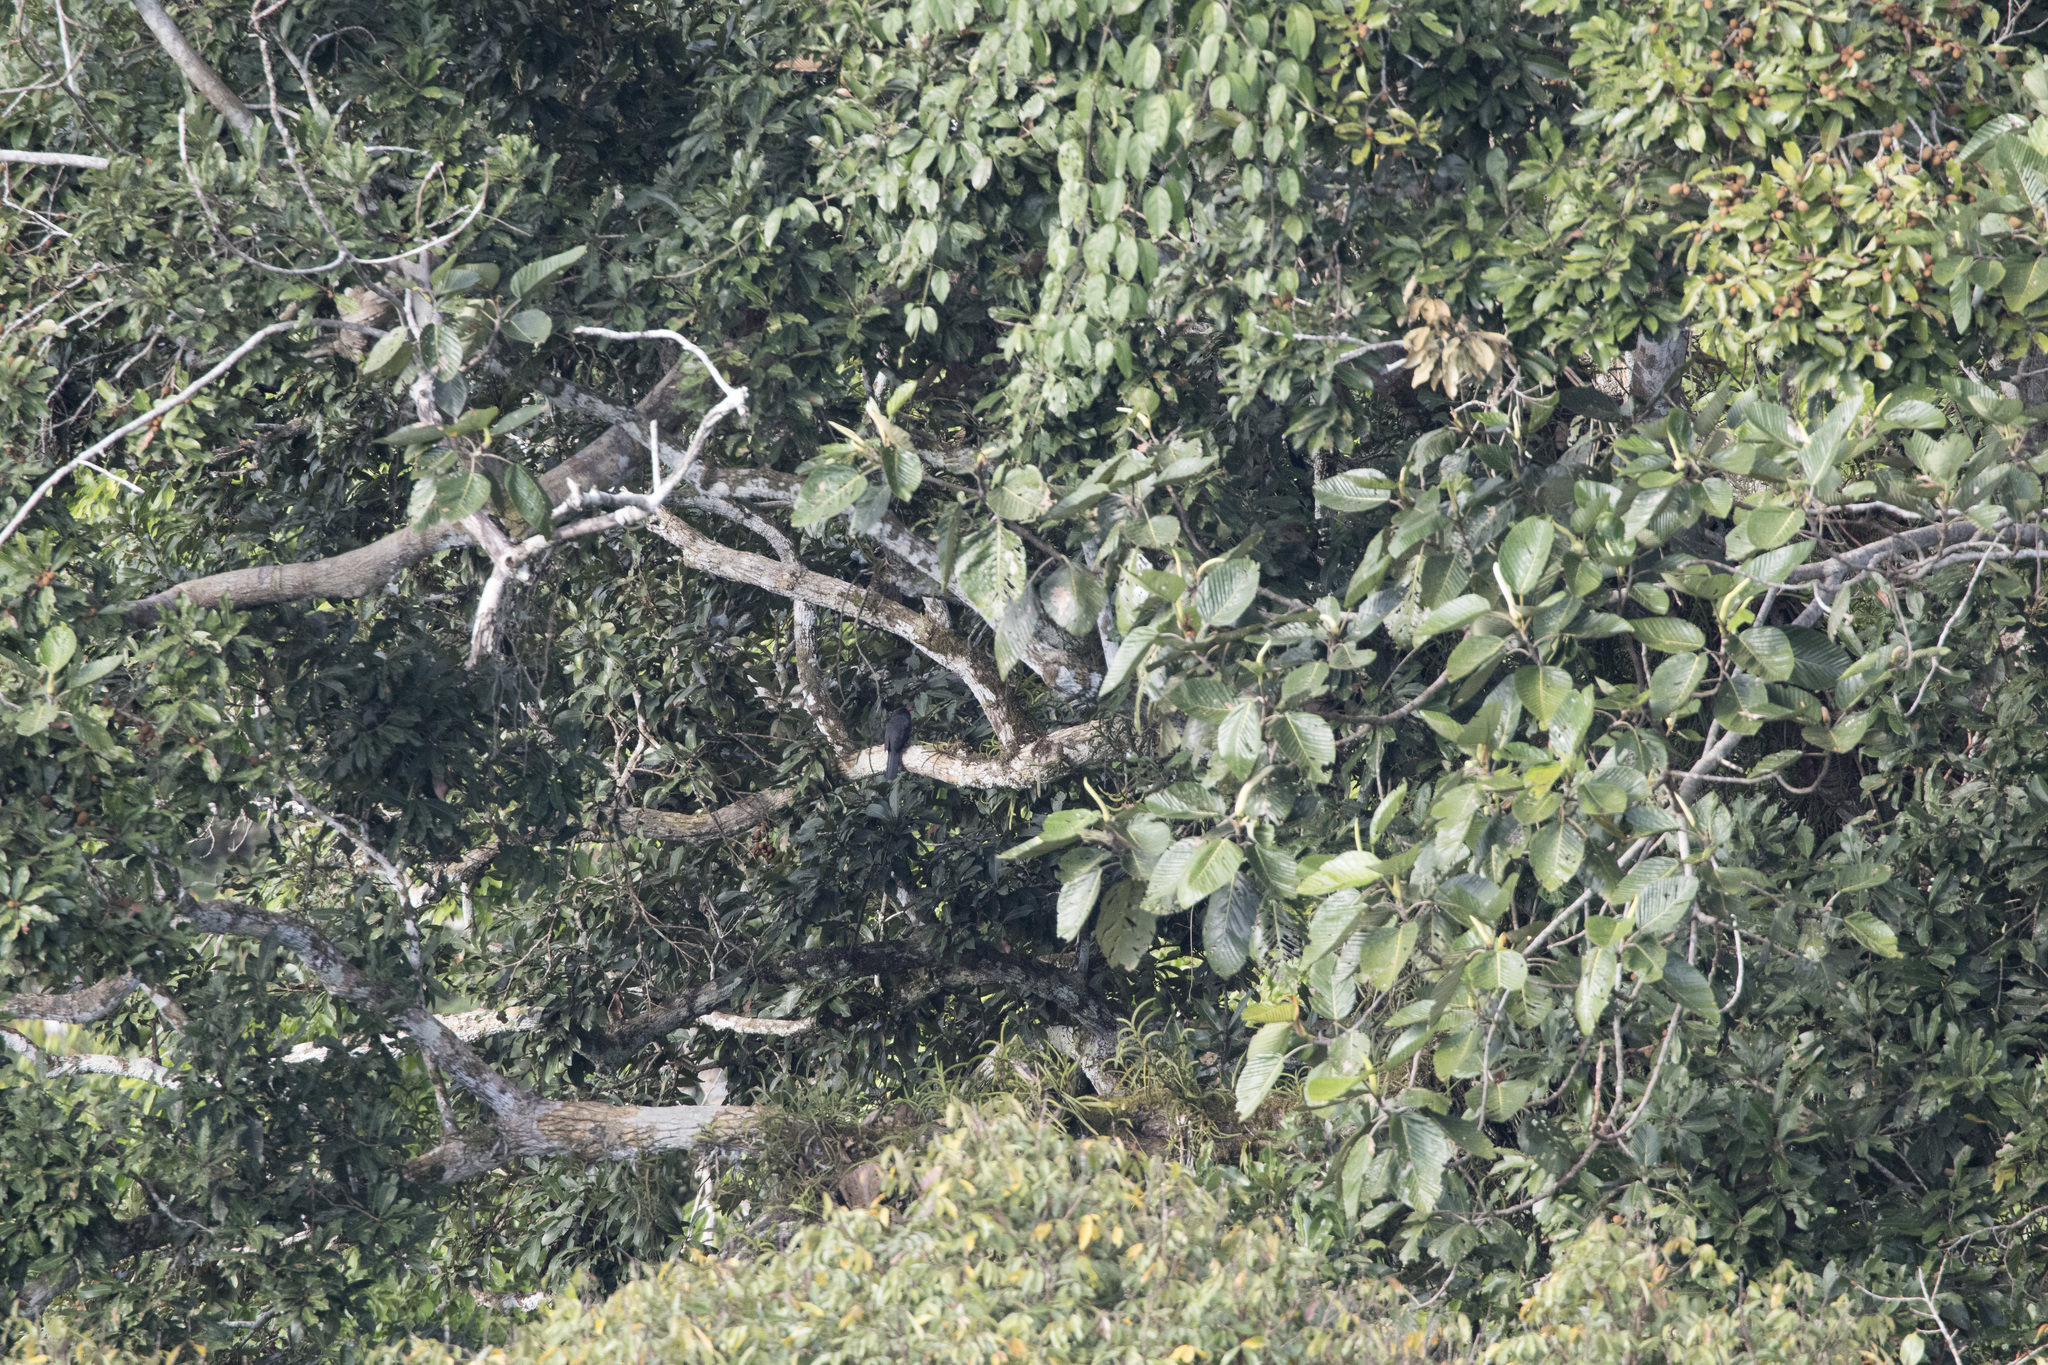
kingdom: Animalia
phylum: Chordata
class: Aves
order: Piciformes
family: Bucconidae
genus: Monasa
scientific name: Monasa nigrifrons
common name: Black-fronted nunbird
